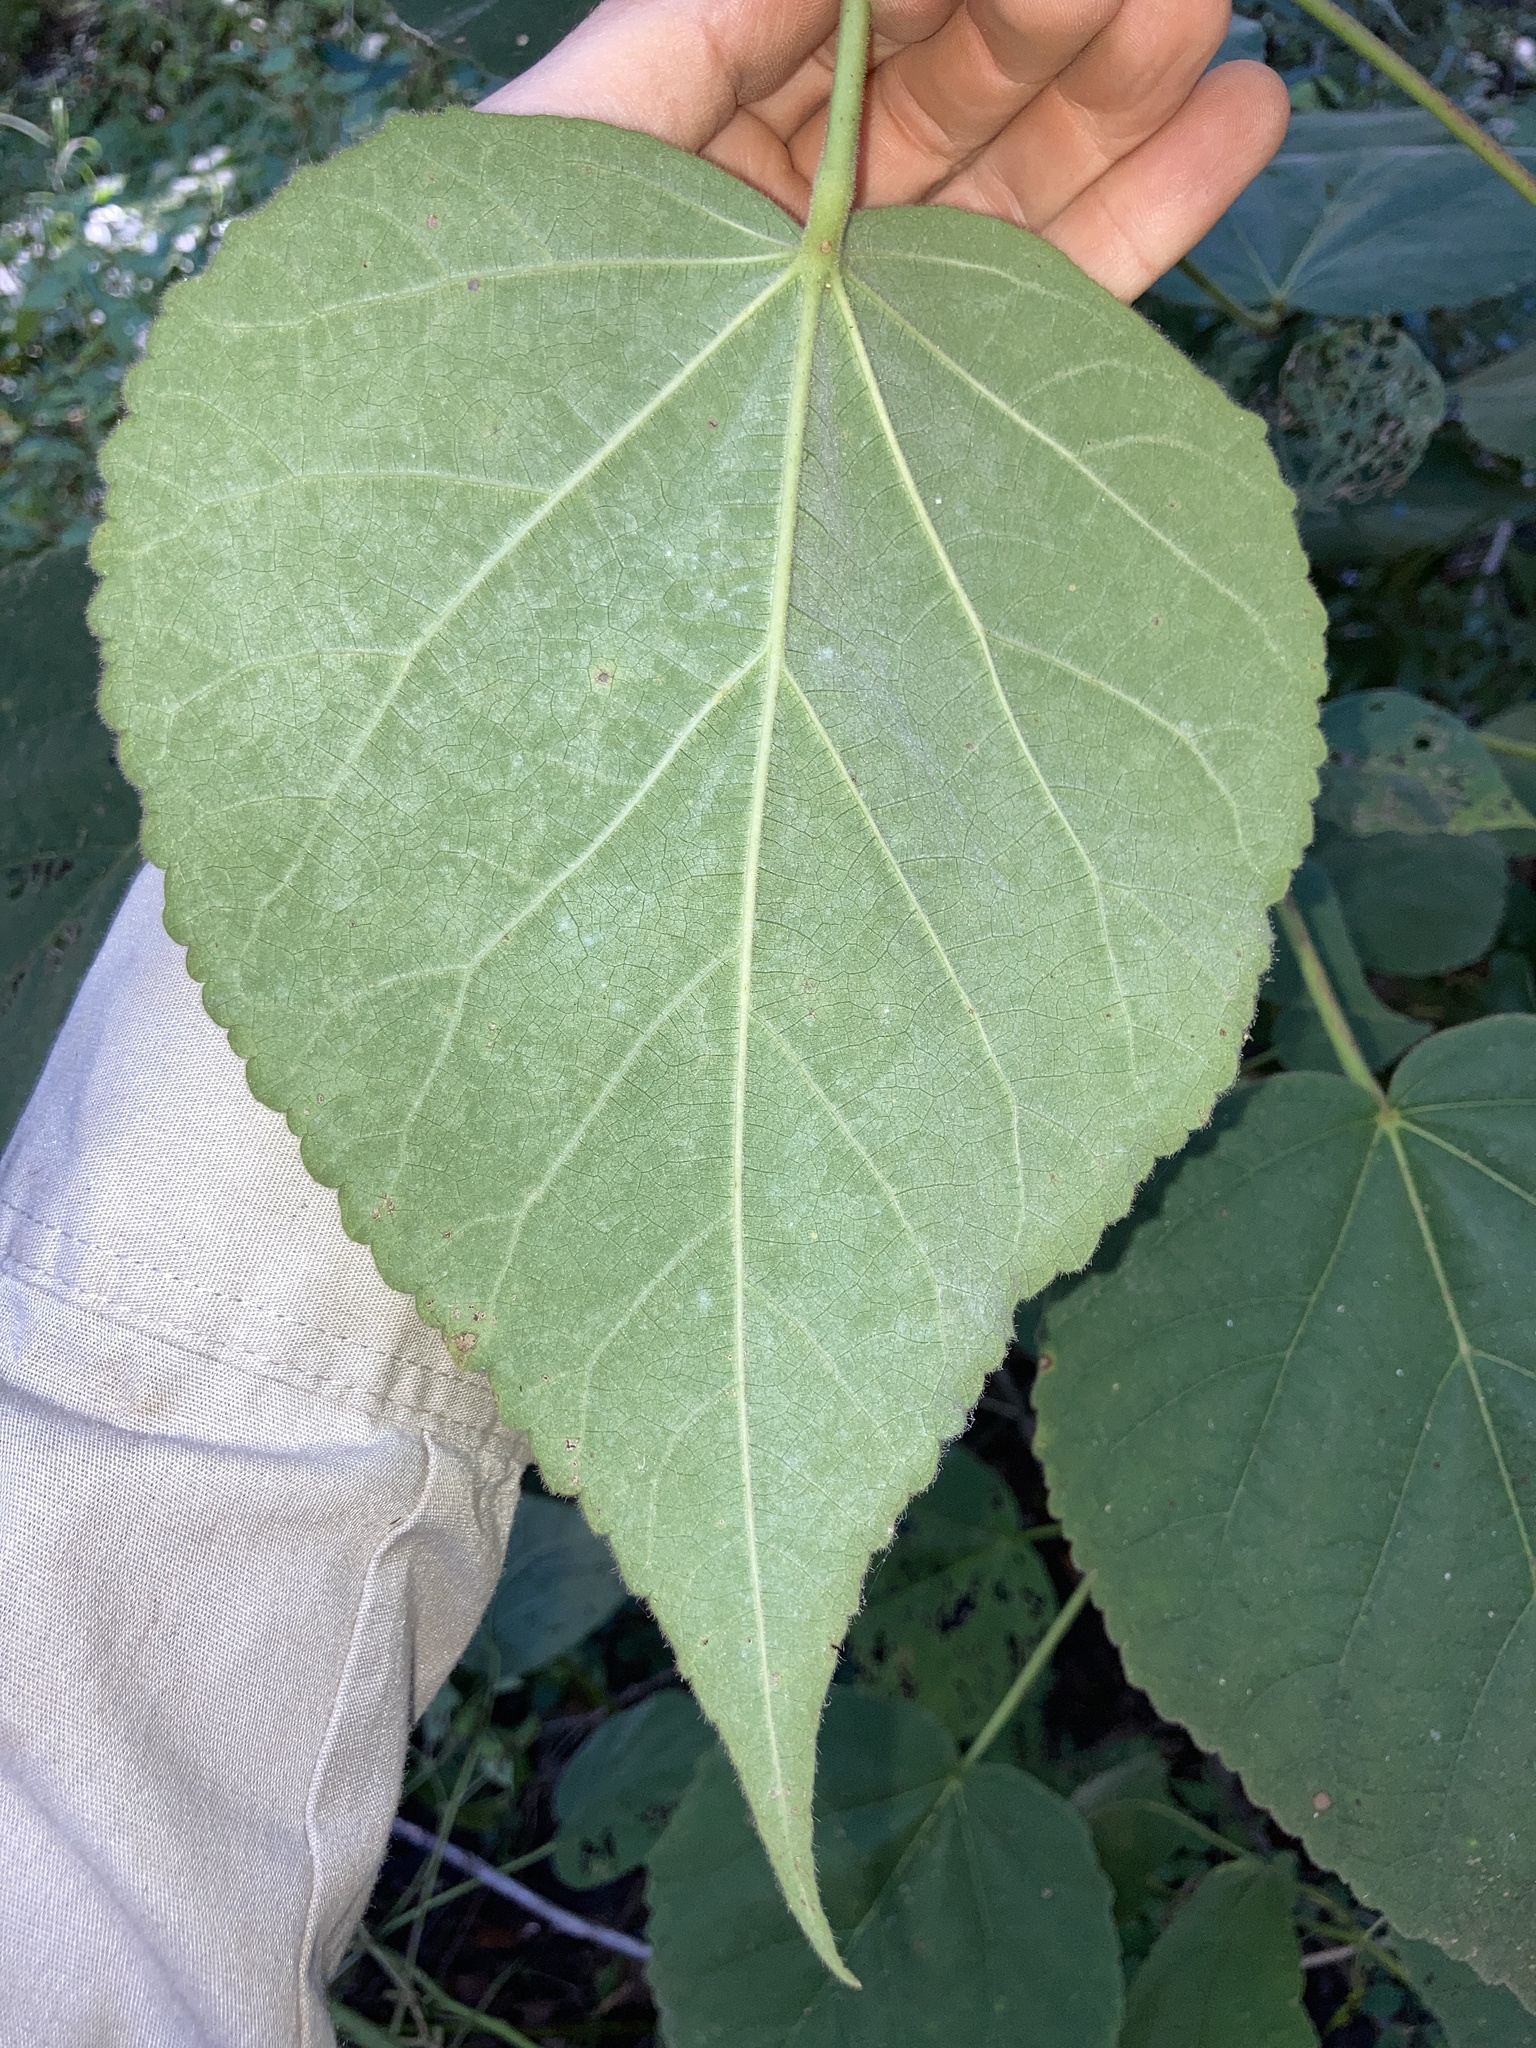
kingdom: Plantae
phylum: Tracheophyta
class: Magnoliopsida
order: Malvales
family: Malvaceae
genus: Hibiscus
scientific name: Hibiscus moscheutos
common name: Common rose-mallow
